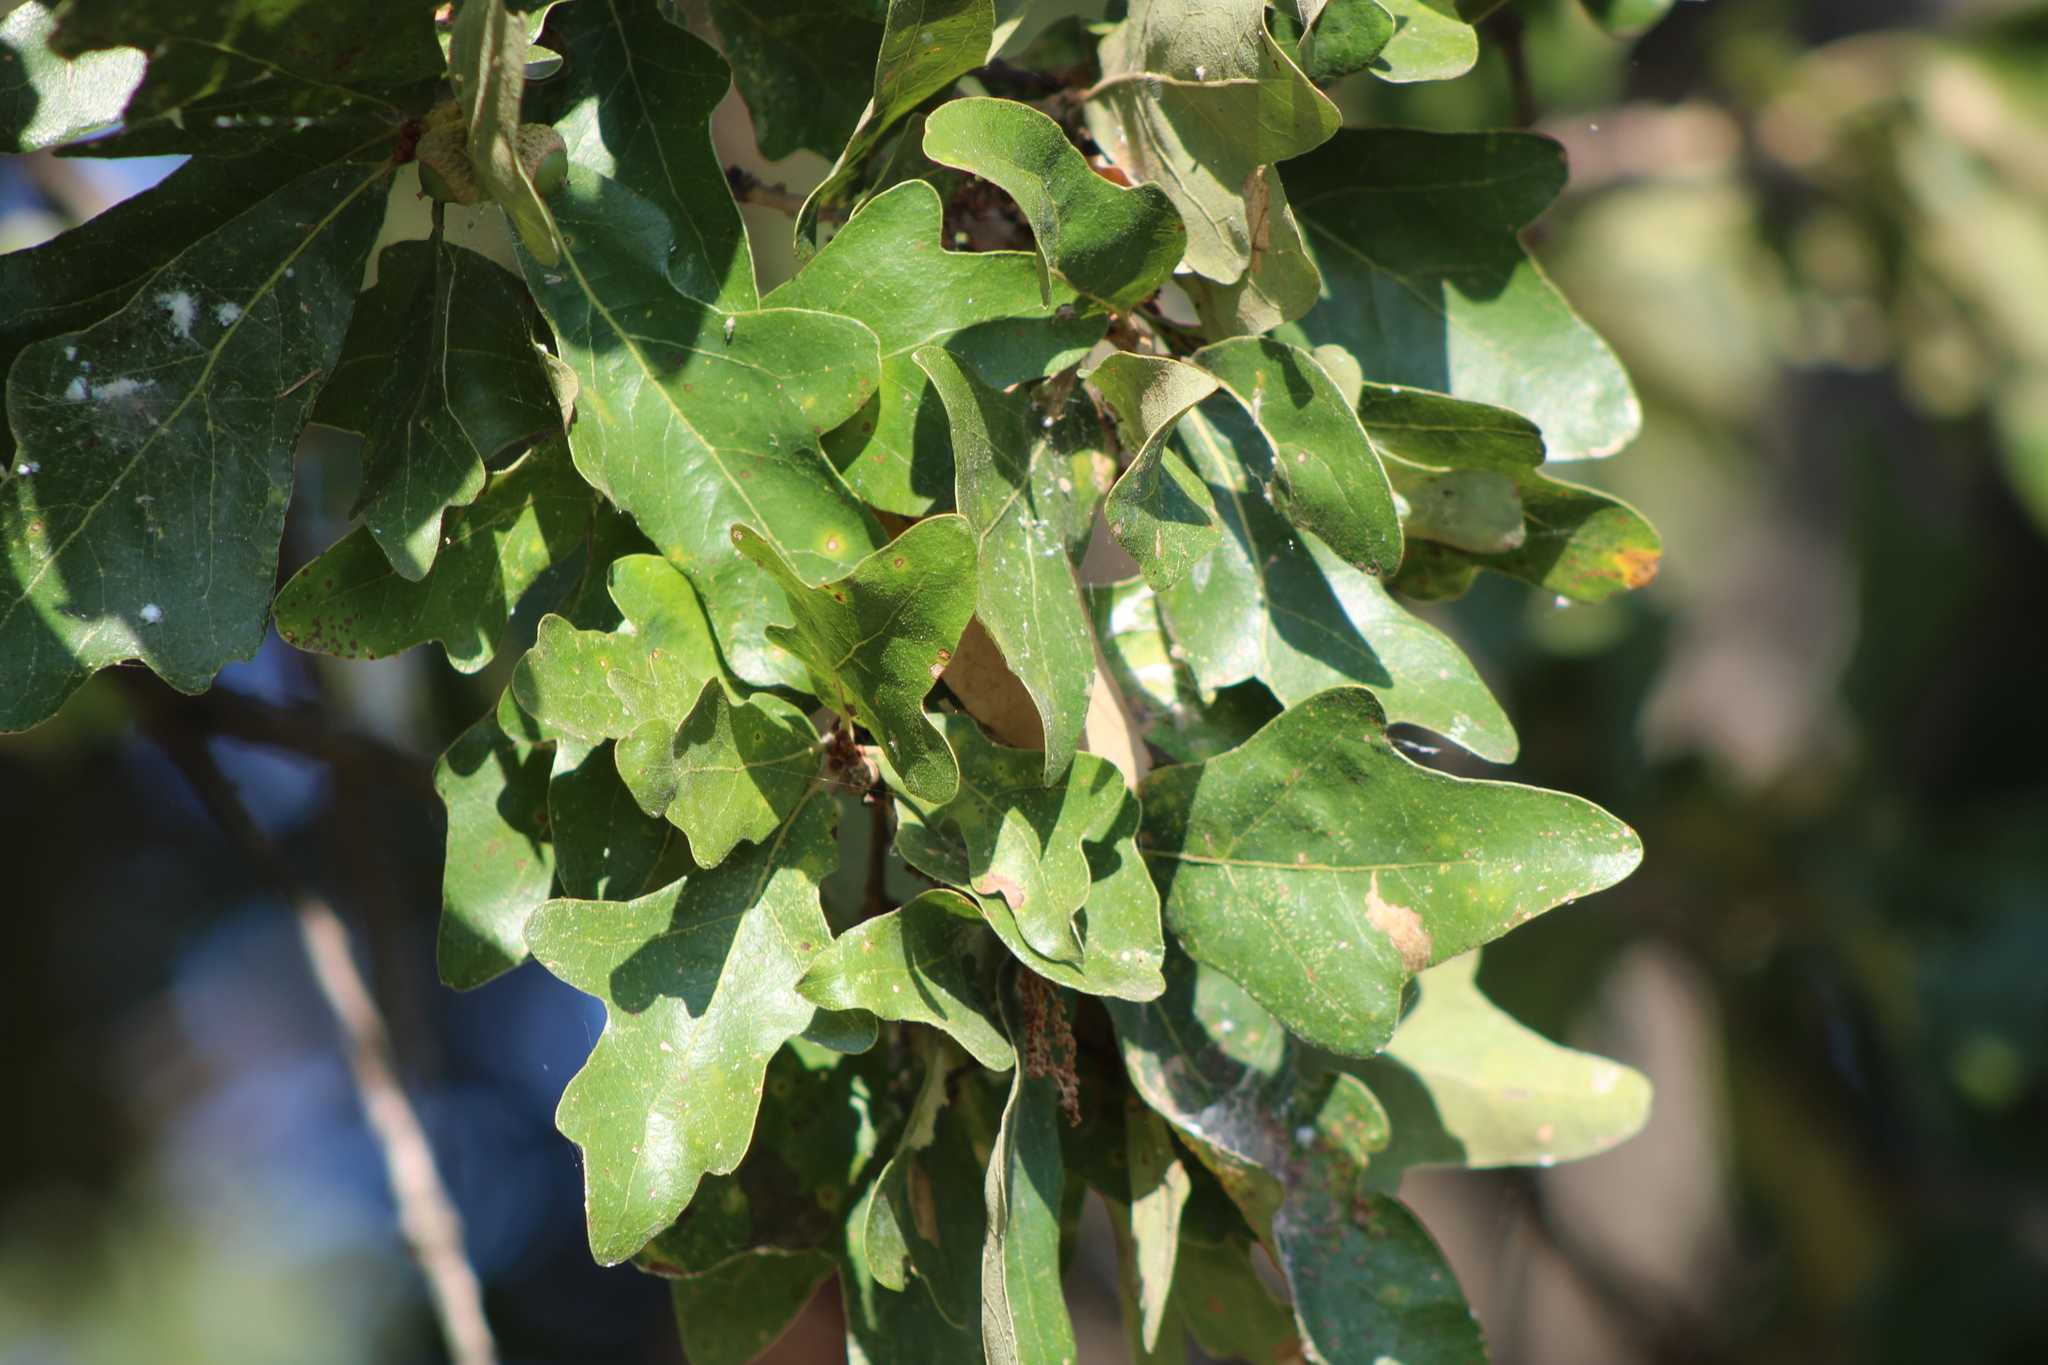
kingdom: Plantae
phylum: Tracheophyta
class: Magnoliopsida
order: Fagales
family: Fagaceae
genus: Quercus
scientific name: Quercus stellata
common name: Post oak
